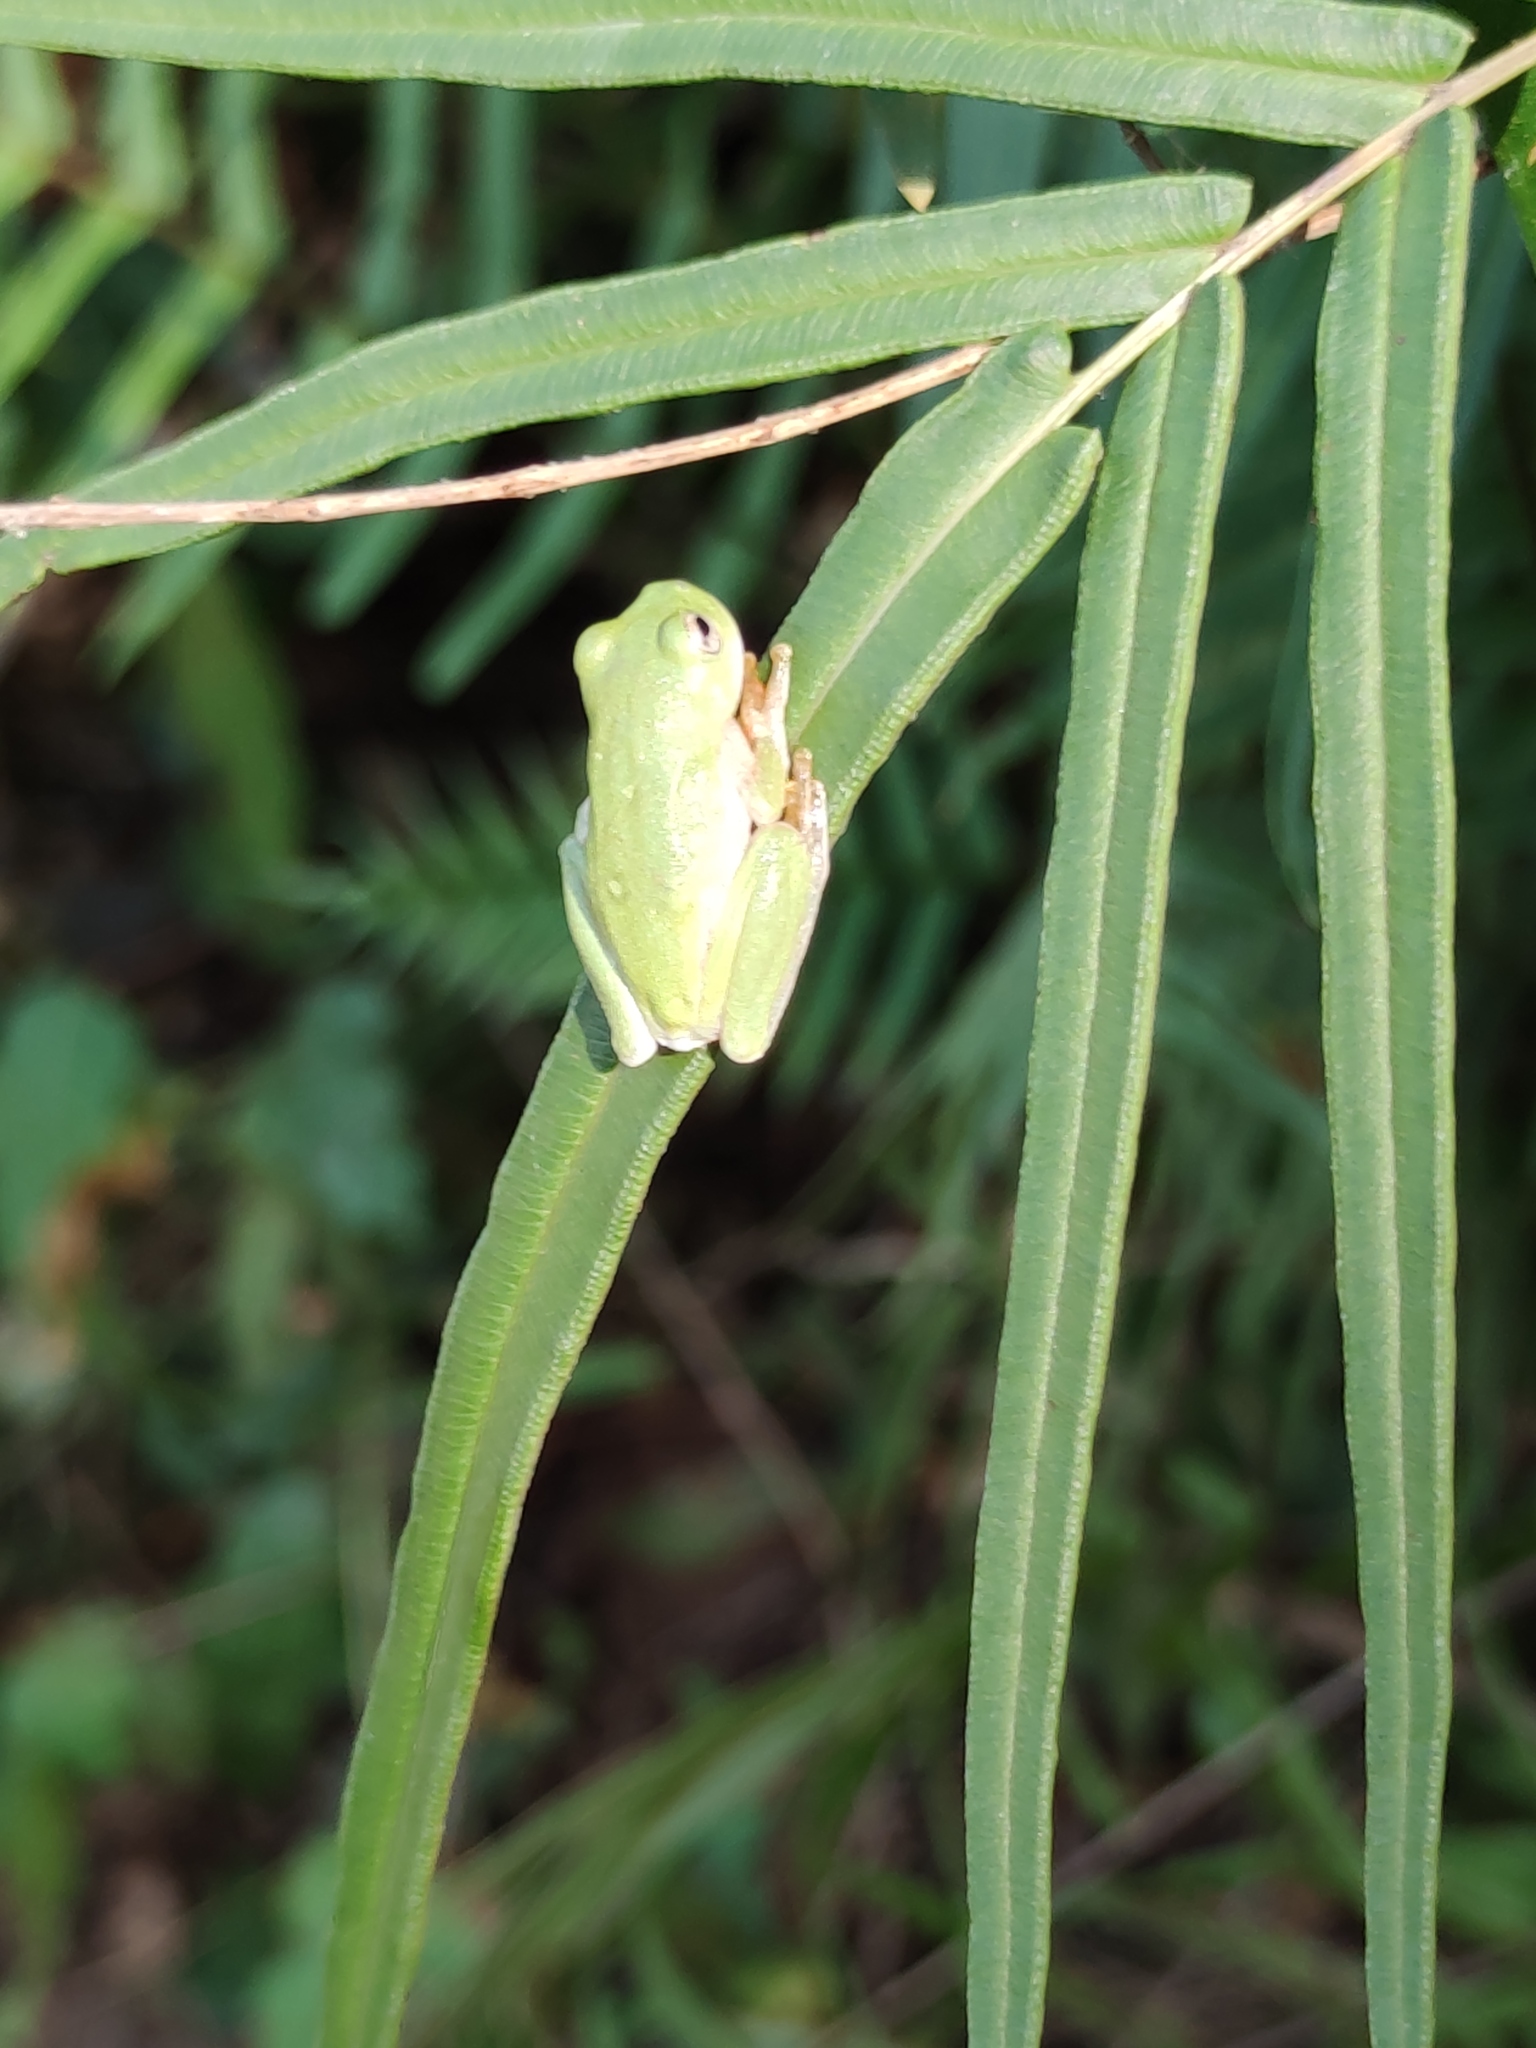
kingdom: Animalia
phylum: Chordata
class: Amphibia
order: Anura
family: Hylidae
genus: Rheohyla
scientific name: Rheohyla miotympanum
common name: Small-eard hyla
